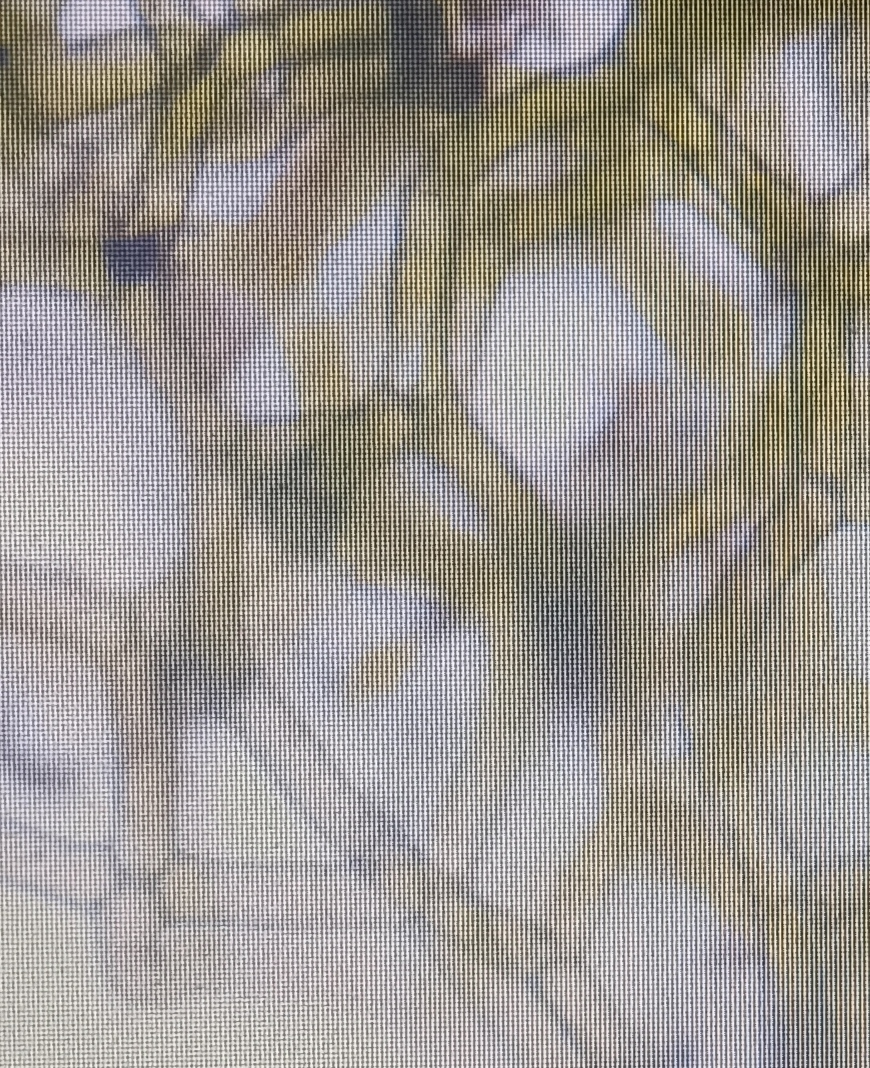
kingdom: Plantae
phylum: Chlorophyta
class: Chlorophyceae
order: Sphaeropleales
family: Hydrodictyaceae
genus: Hydrodictyon
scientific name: Hydrodictyon reticulatum
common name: Water net
